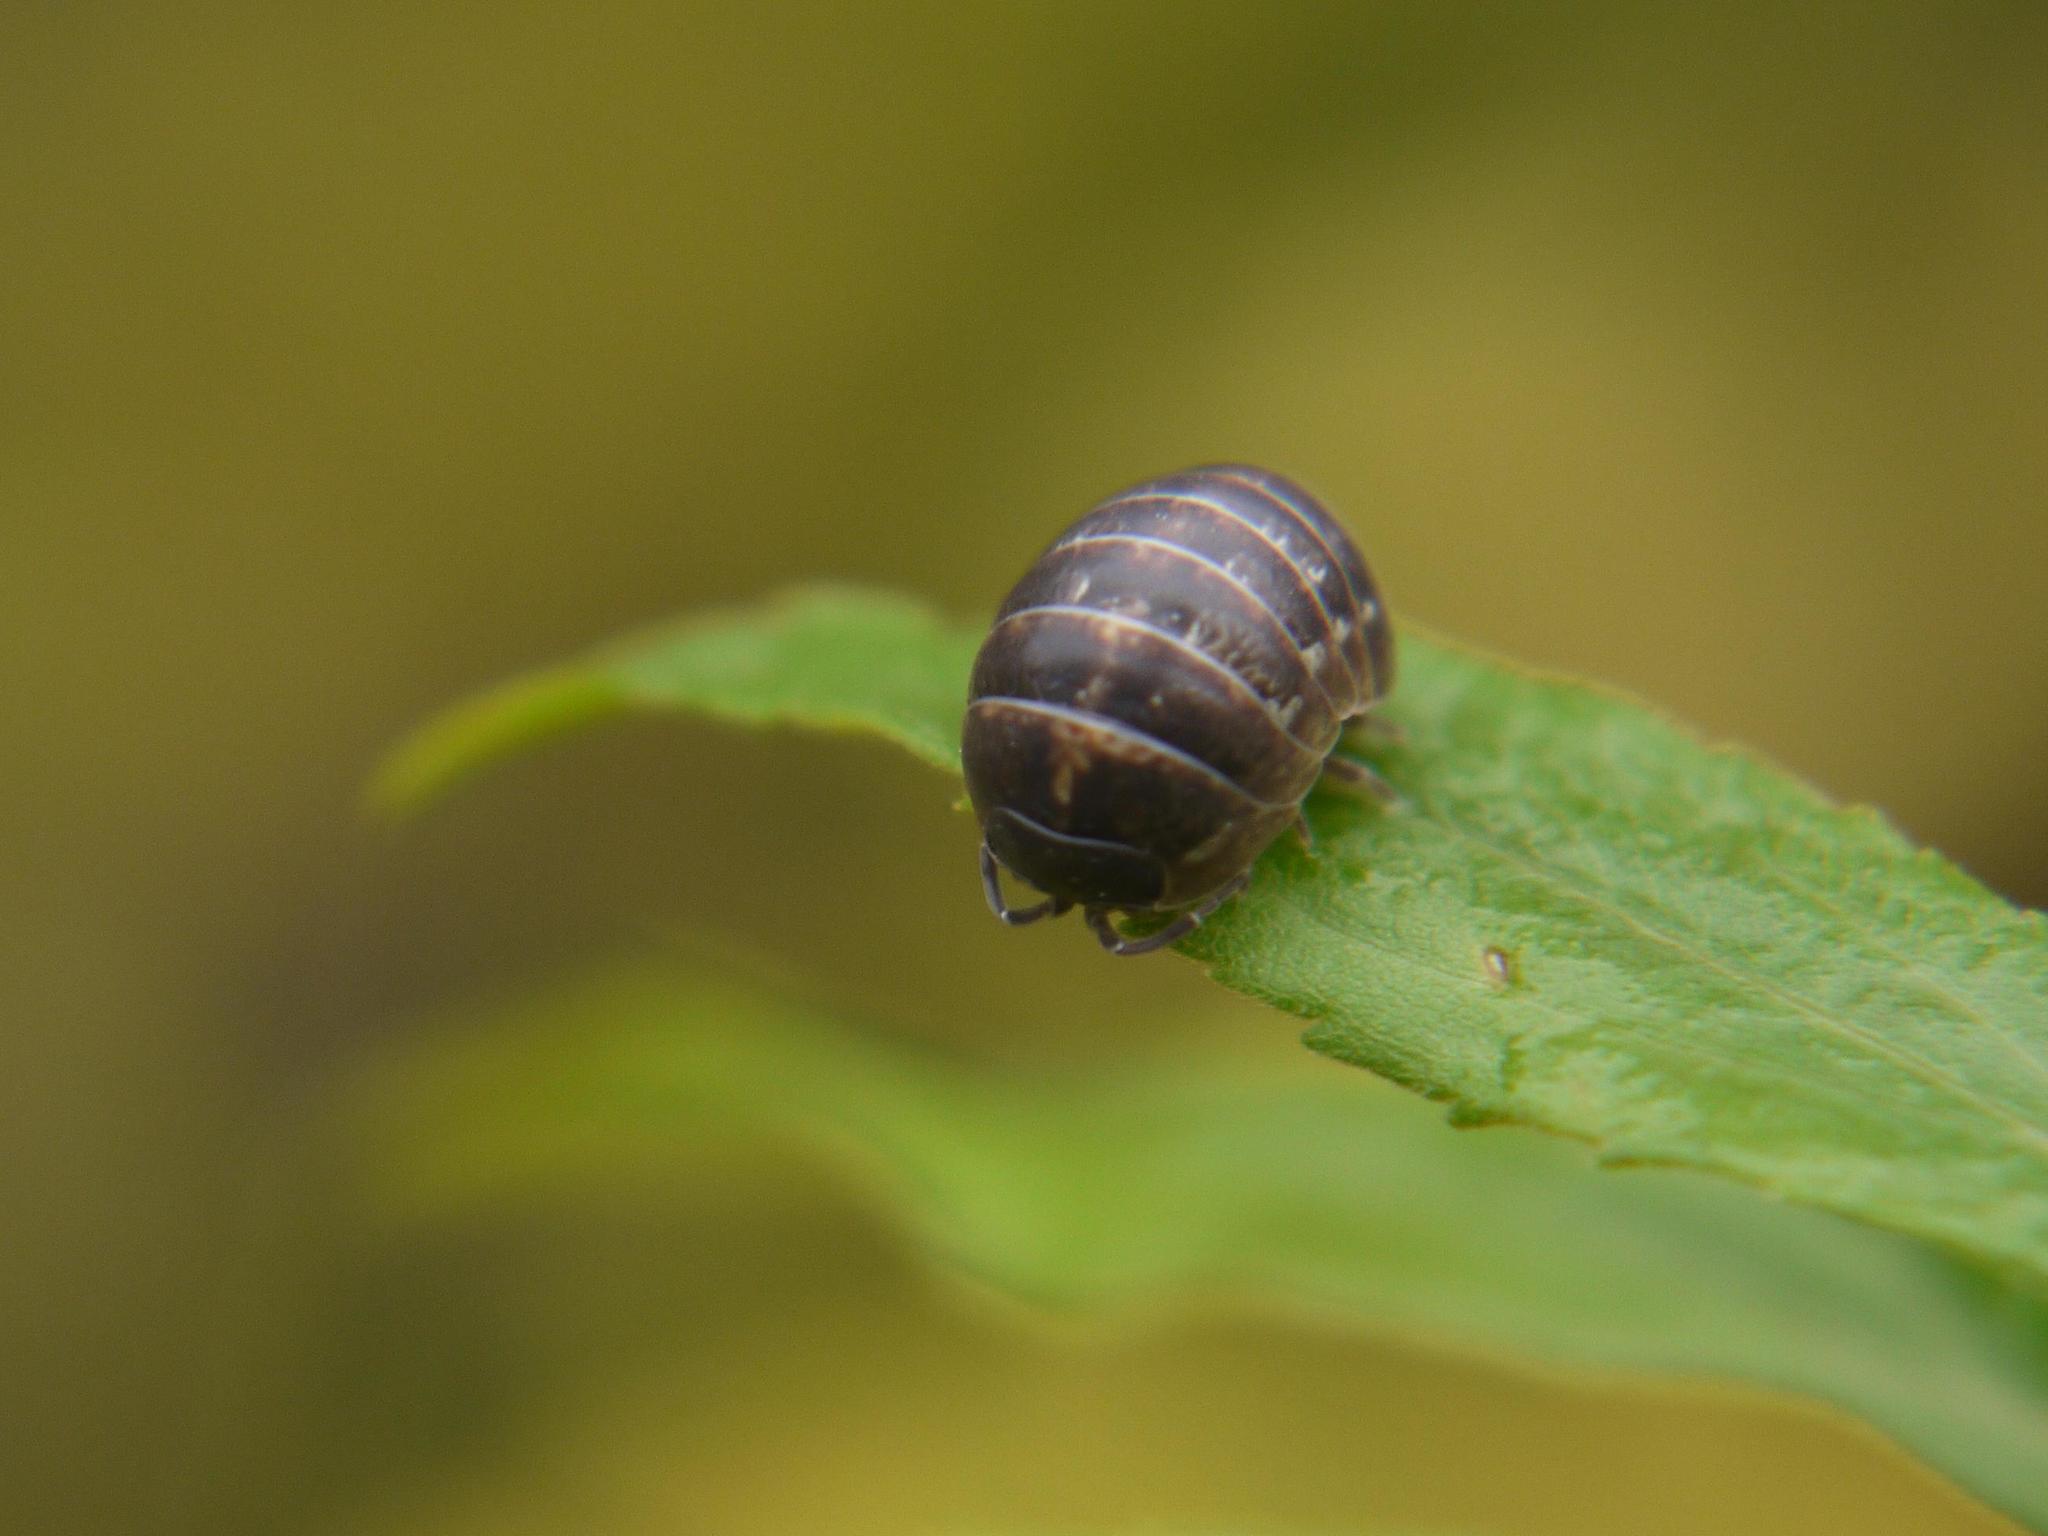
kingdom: Animalia
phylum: Arthropoda
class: Malacostraca
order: Isopoda
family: Armadillidiidae
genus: Armadillidium
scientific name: Armadillidium vulgare
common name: Common pill woodlouse
